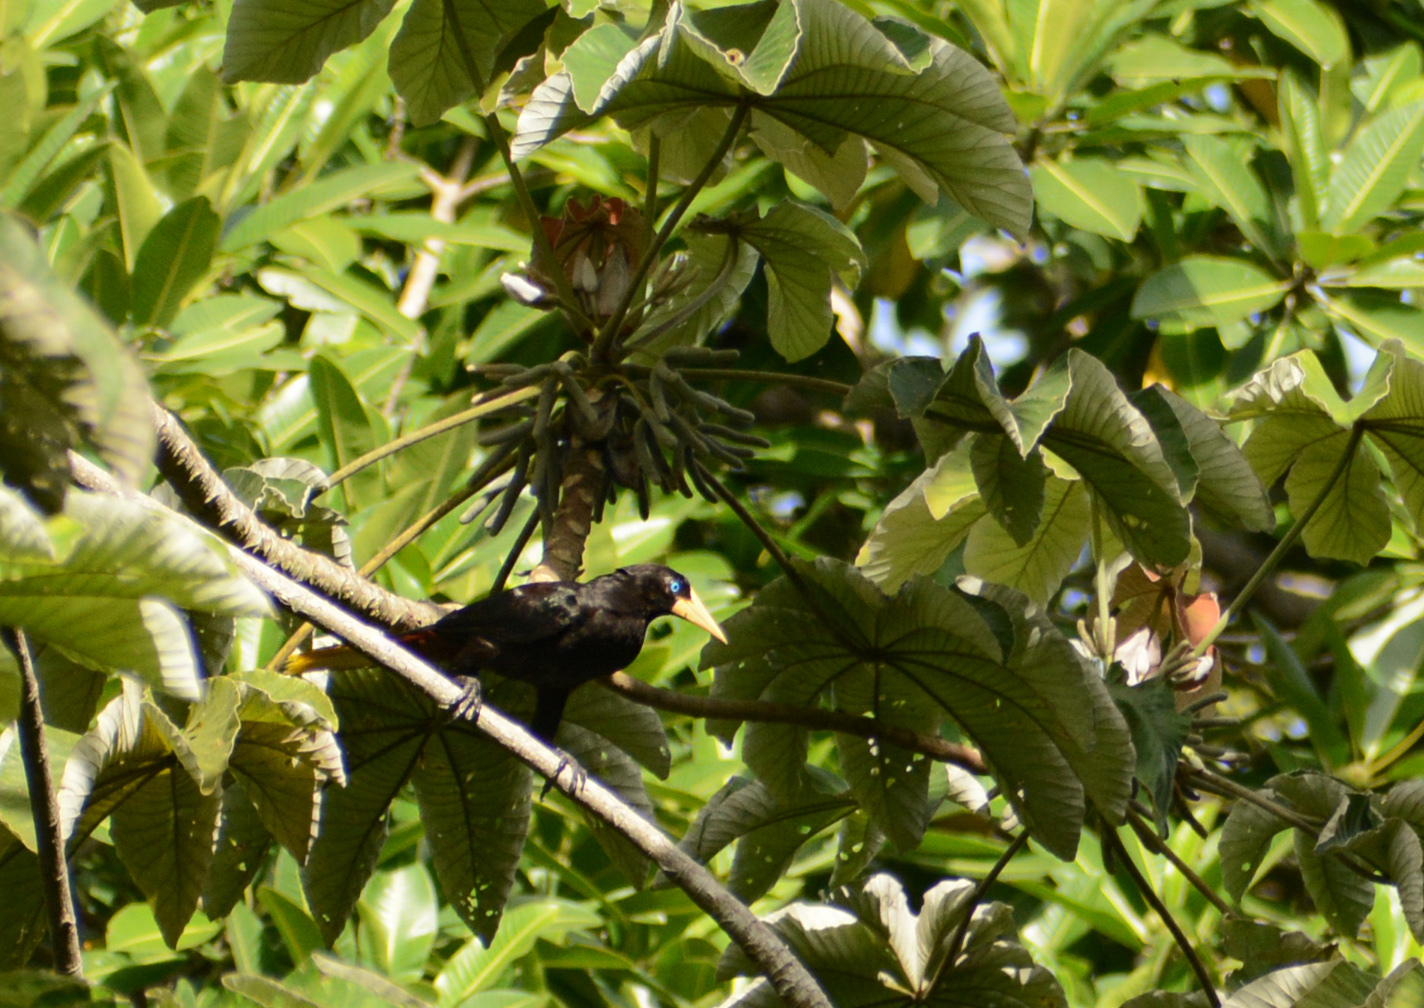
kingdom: Animalia
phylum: Chordata
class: Aves
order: Passeriformes
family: Icteridae
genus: Psarocolius
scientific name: Psarocolius decumanus
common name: Crested oropendola
